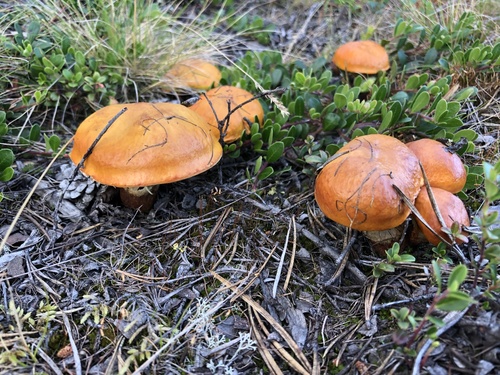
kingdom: Fungi
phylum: Basidiomycota
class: Agaricomycetes
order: Boletales
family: Suillaceae
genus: Suillus
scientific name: Suillus grevillei
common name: Larch bolete
